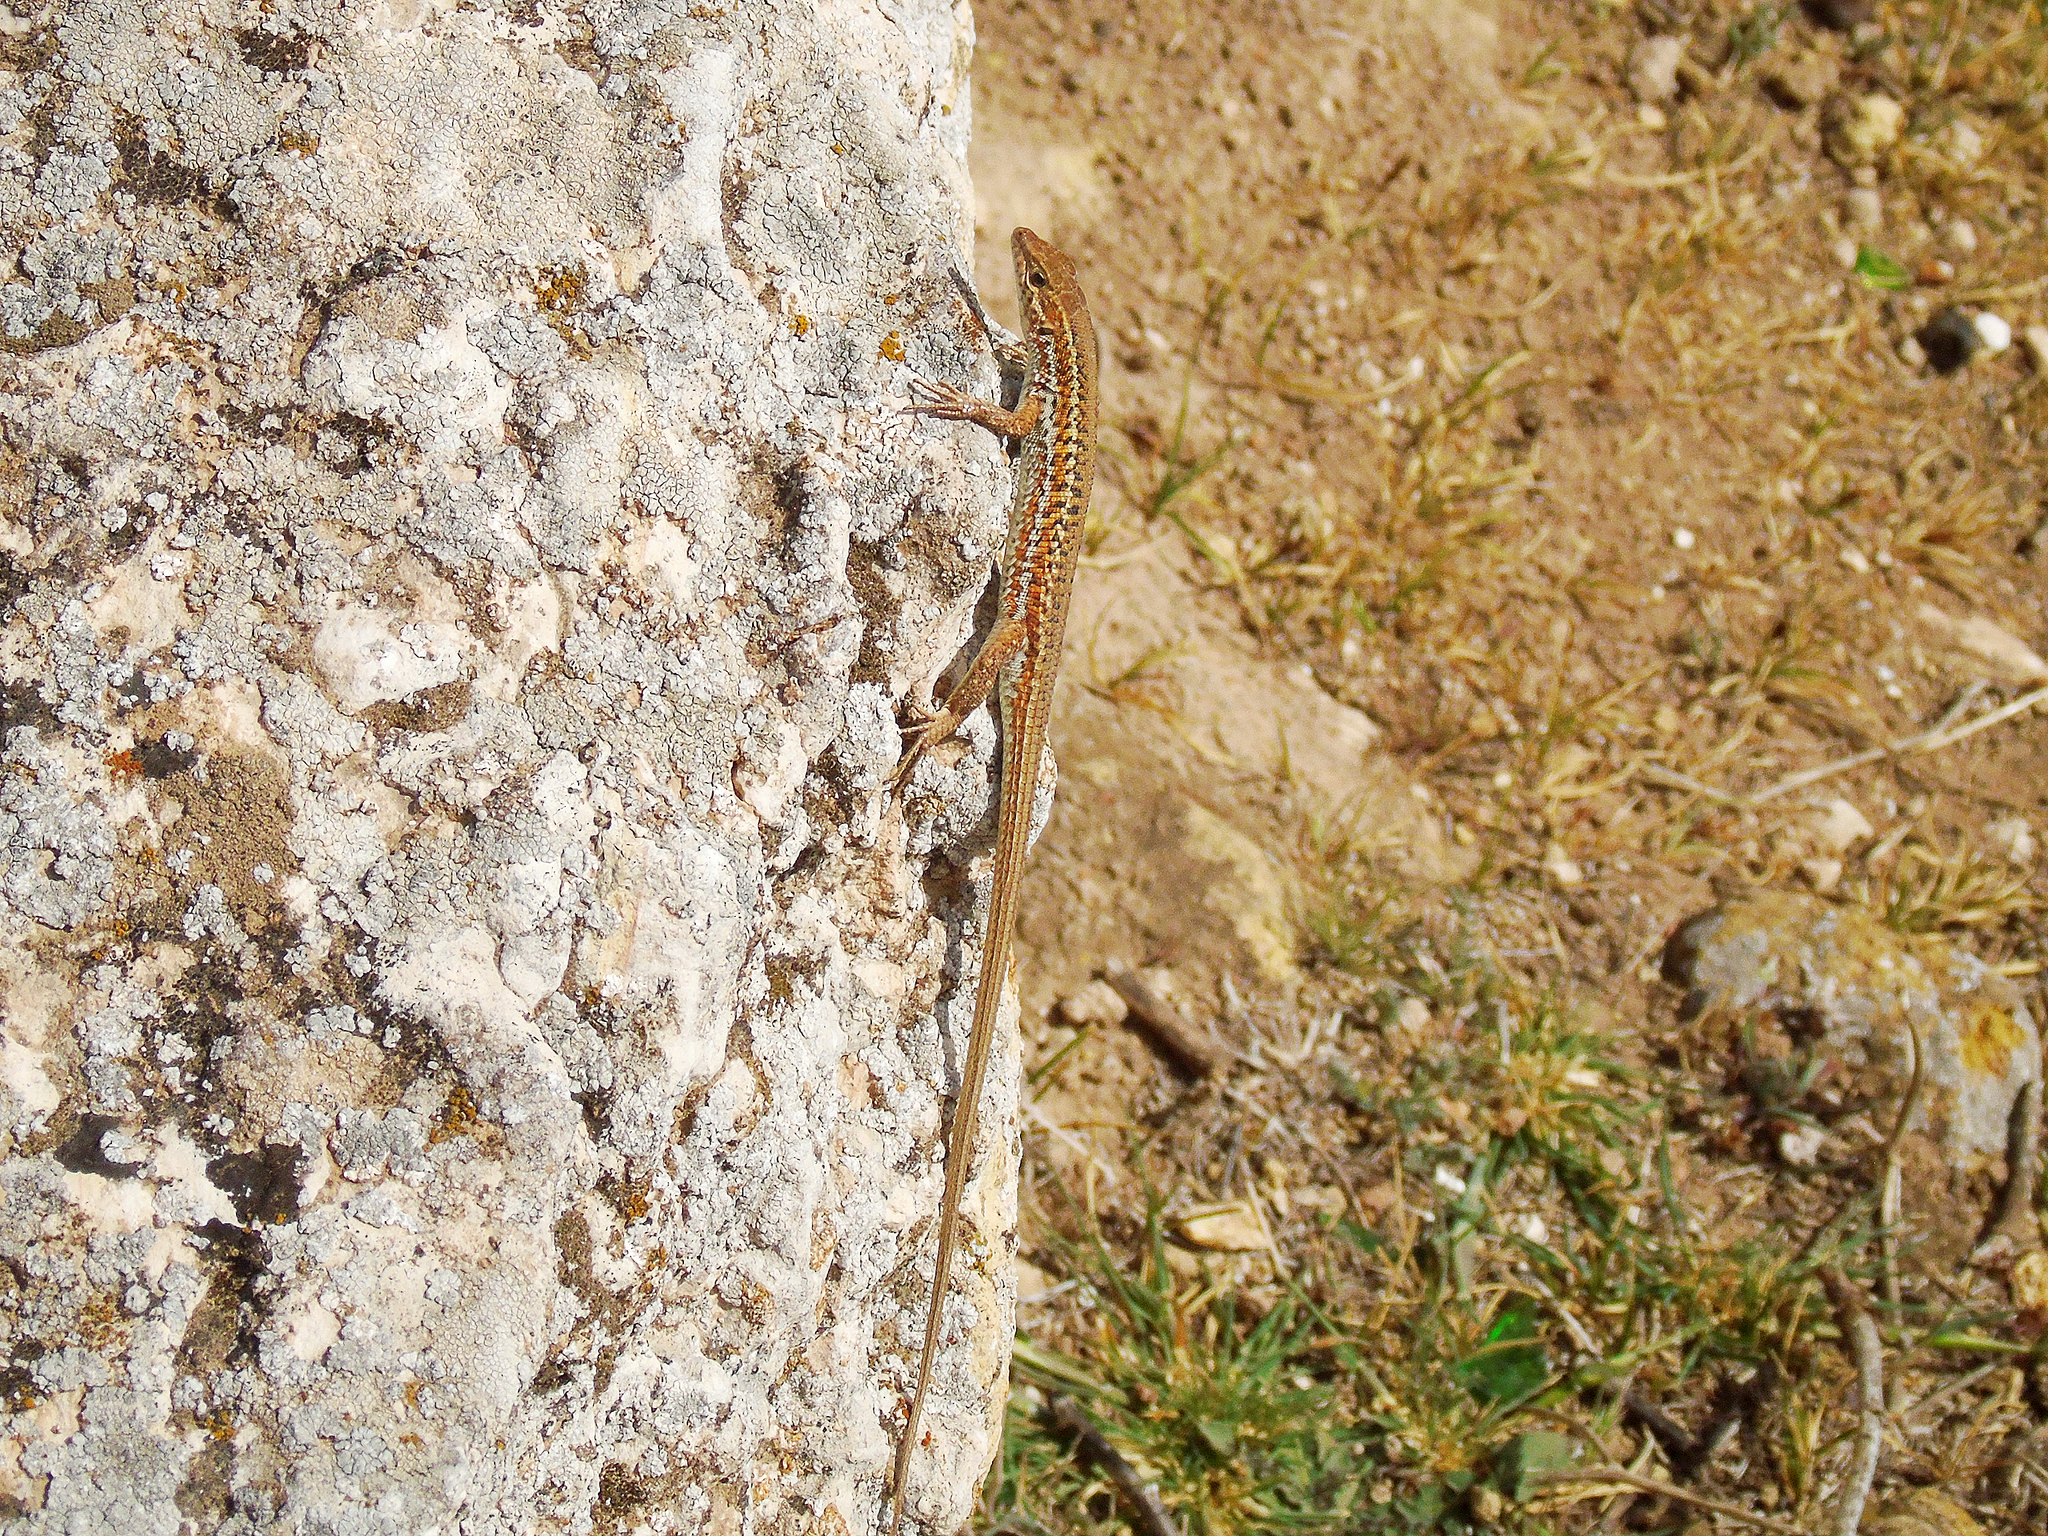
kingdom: Animalia
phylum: Chordata
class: Squamata
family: Lacertidae
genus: Ophisops
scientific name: Ophisops elegans
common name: Snake-eyed lizard
